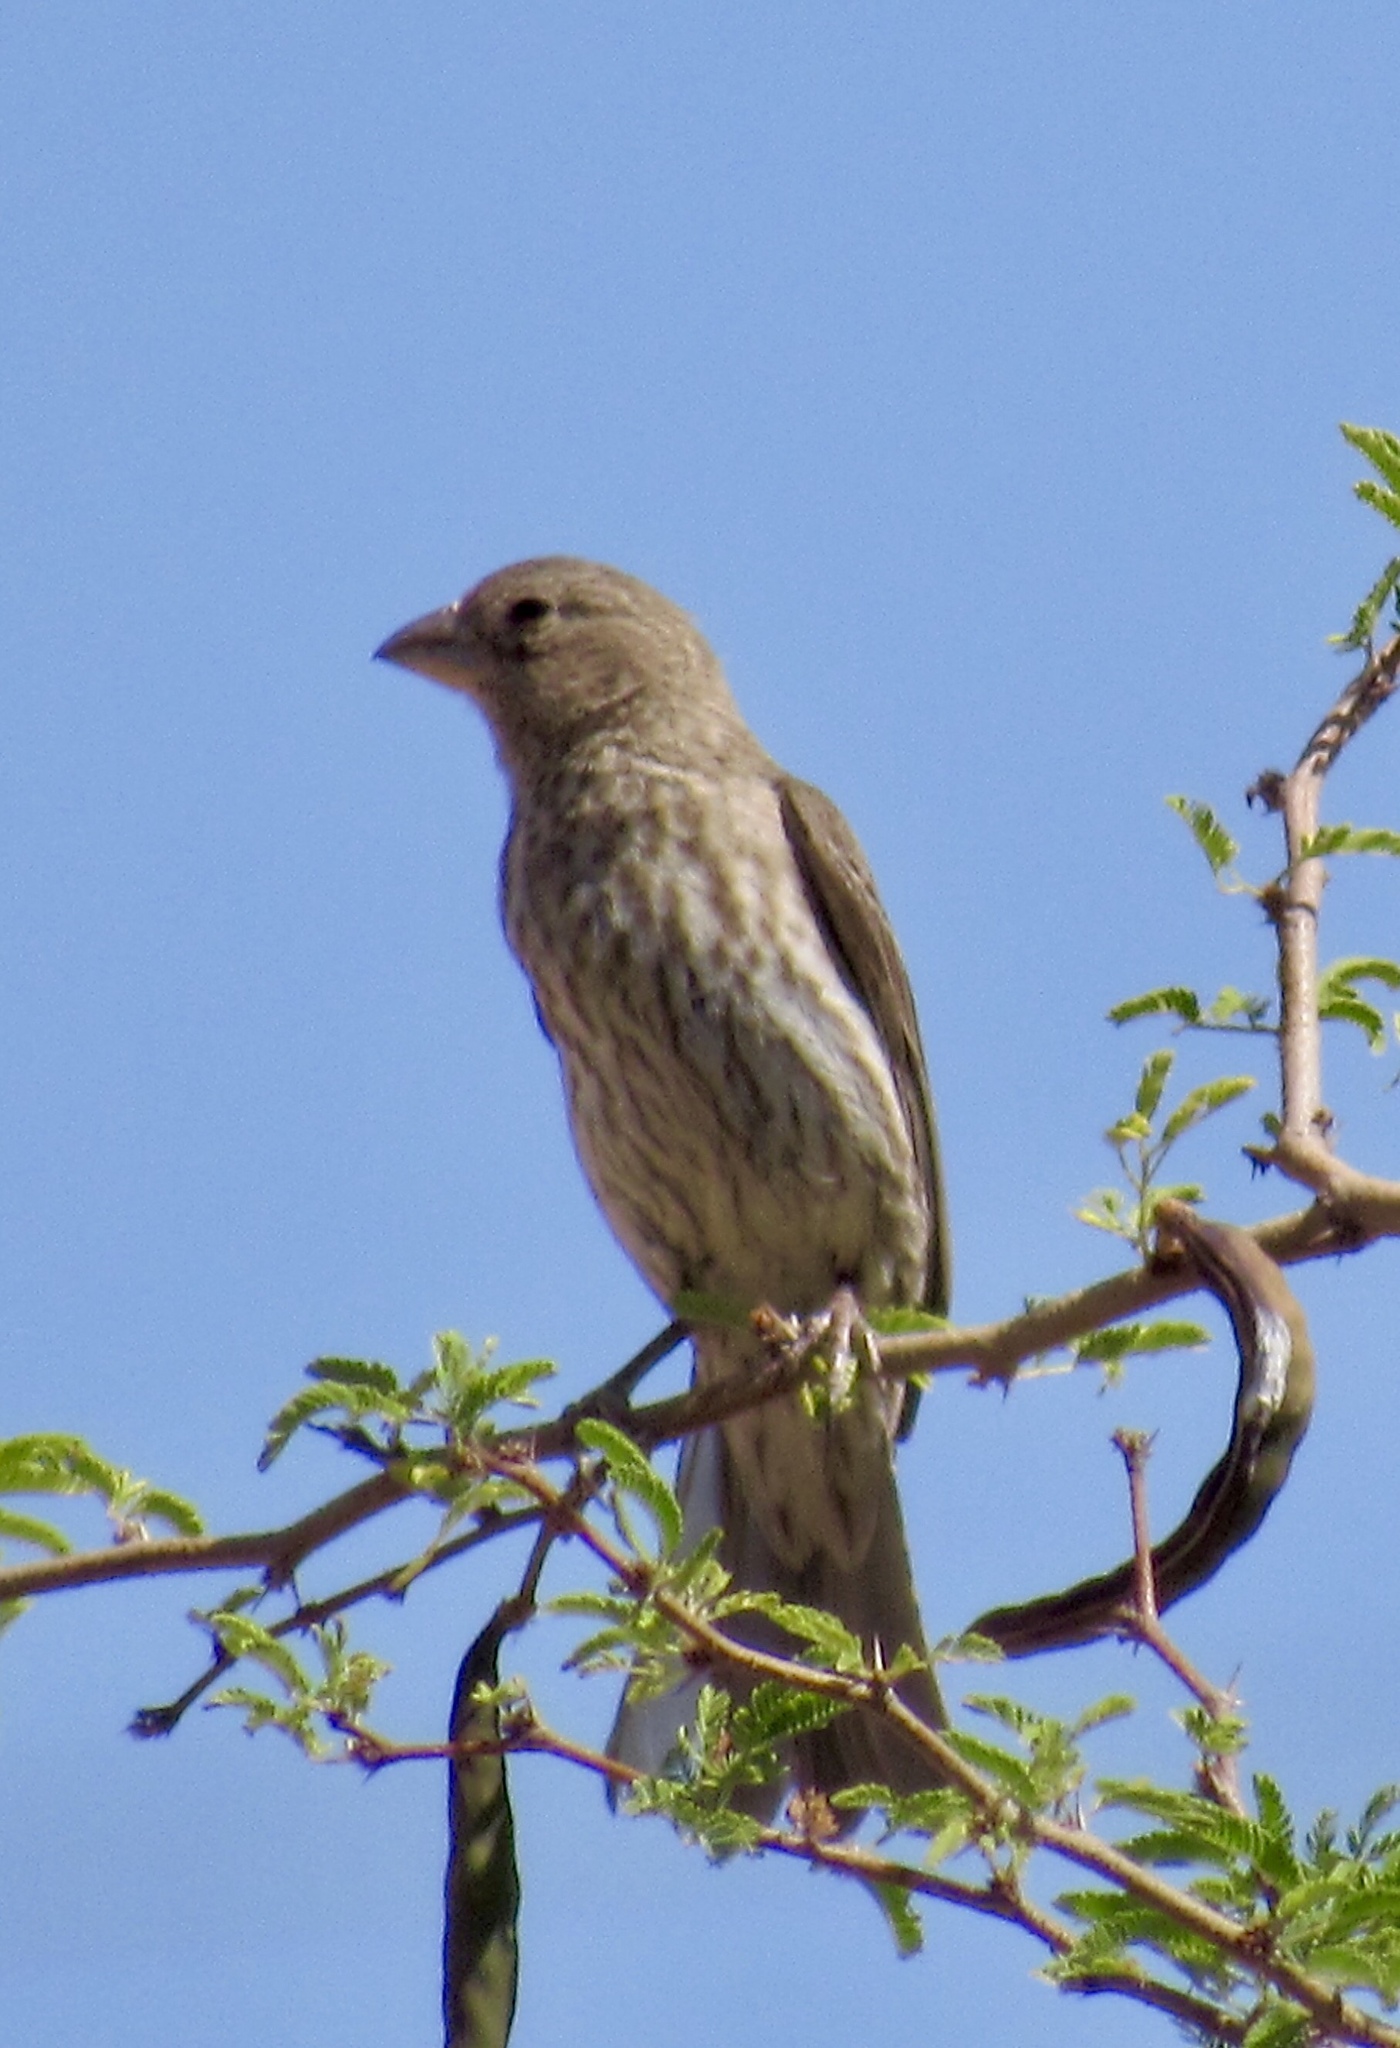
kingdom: Animalia
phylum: Chordata
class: Aves
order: Passeriformes
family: Fringillidae
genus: Haemorhous
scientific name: Haemorhous mexicanus
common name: House finch
